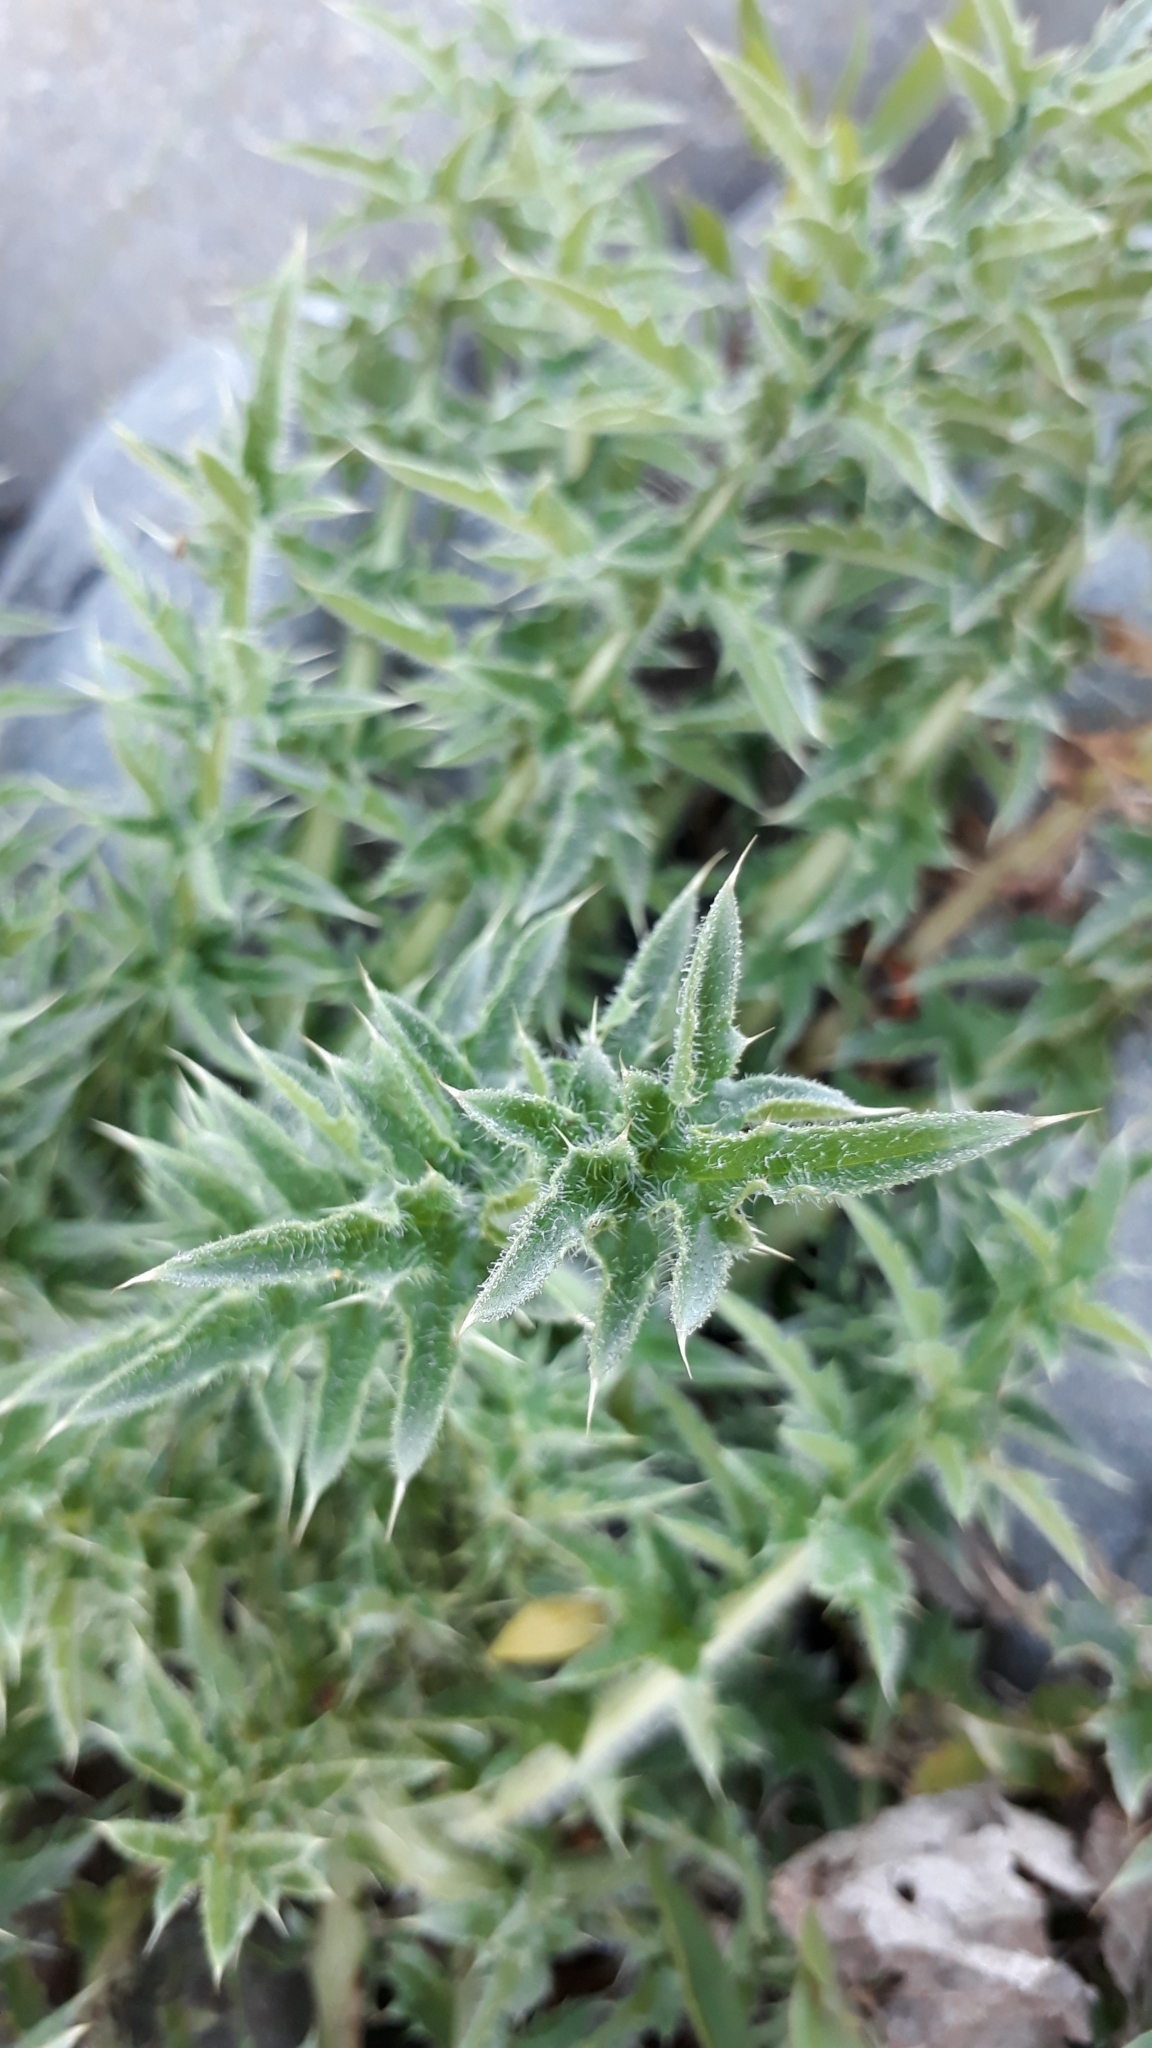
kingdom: Plantae
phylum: Tracheophyta
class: Magnoliopsida
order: Asterales
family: Asteraceae
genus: Cirsium
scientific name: Cirsium vulgare
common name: Bull thistle
